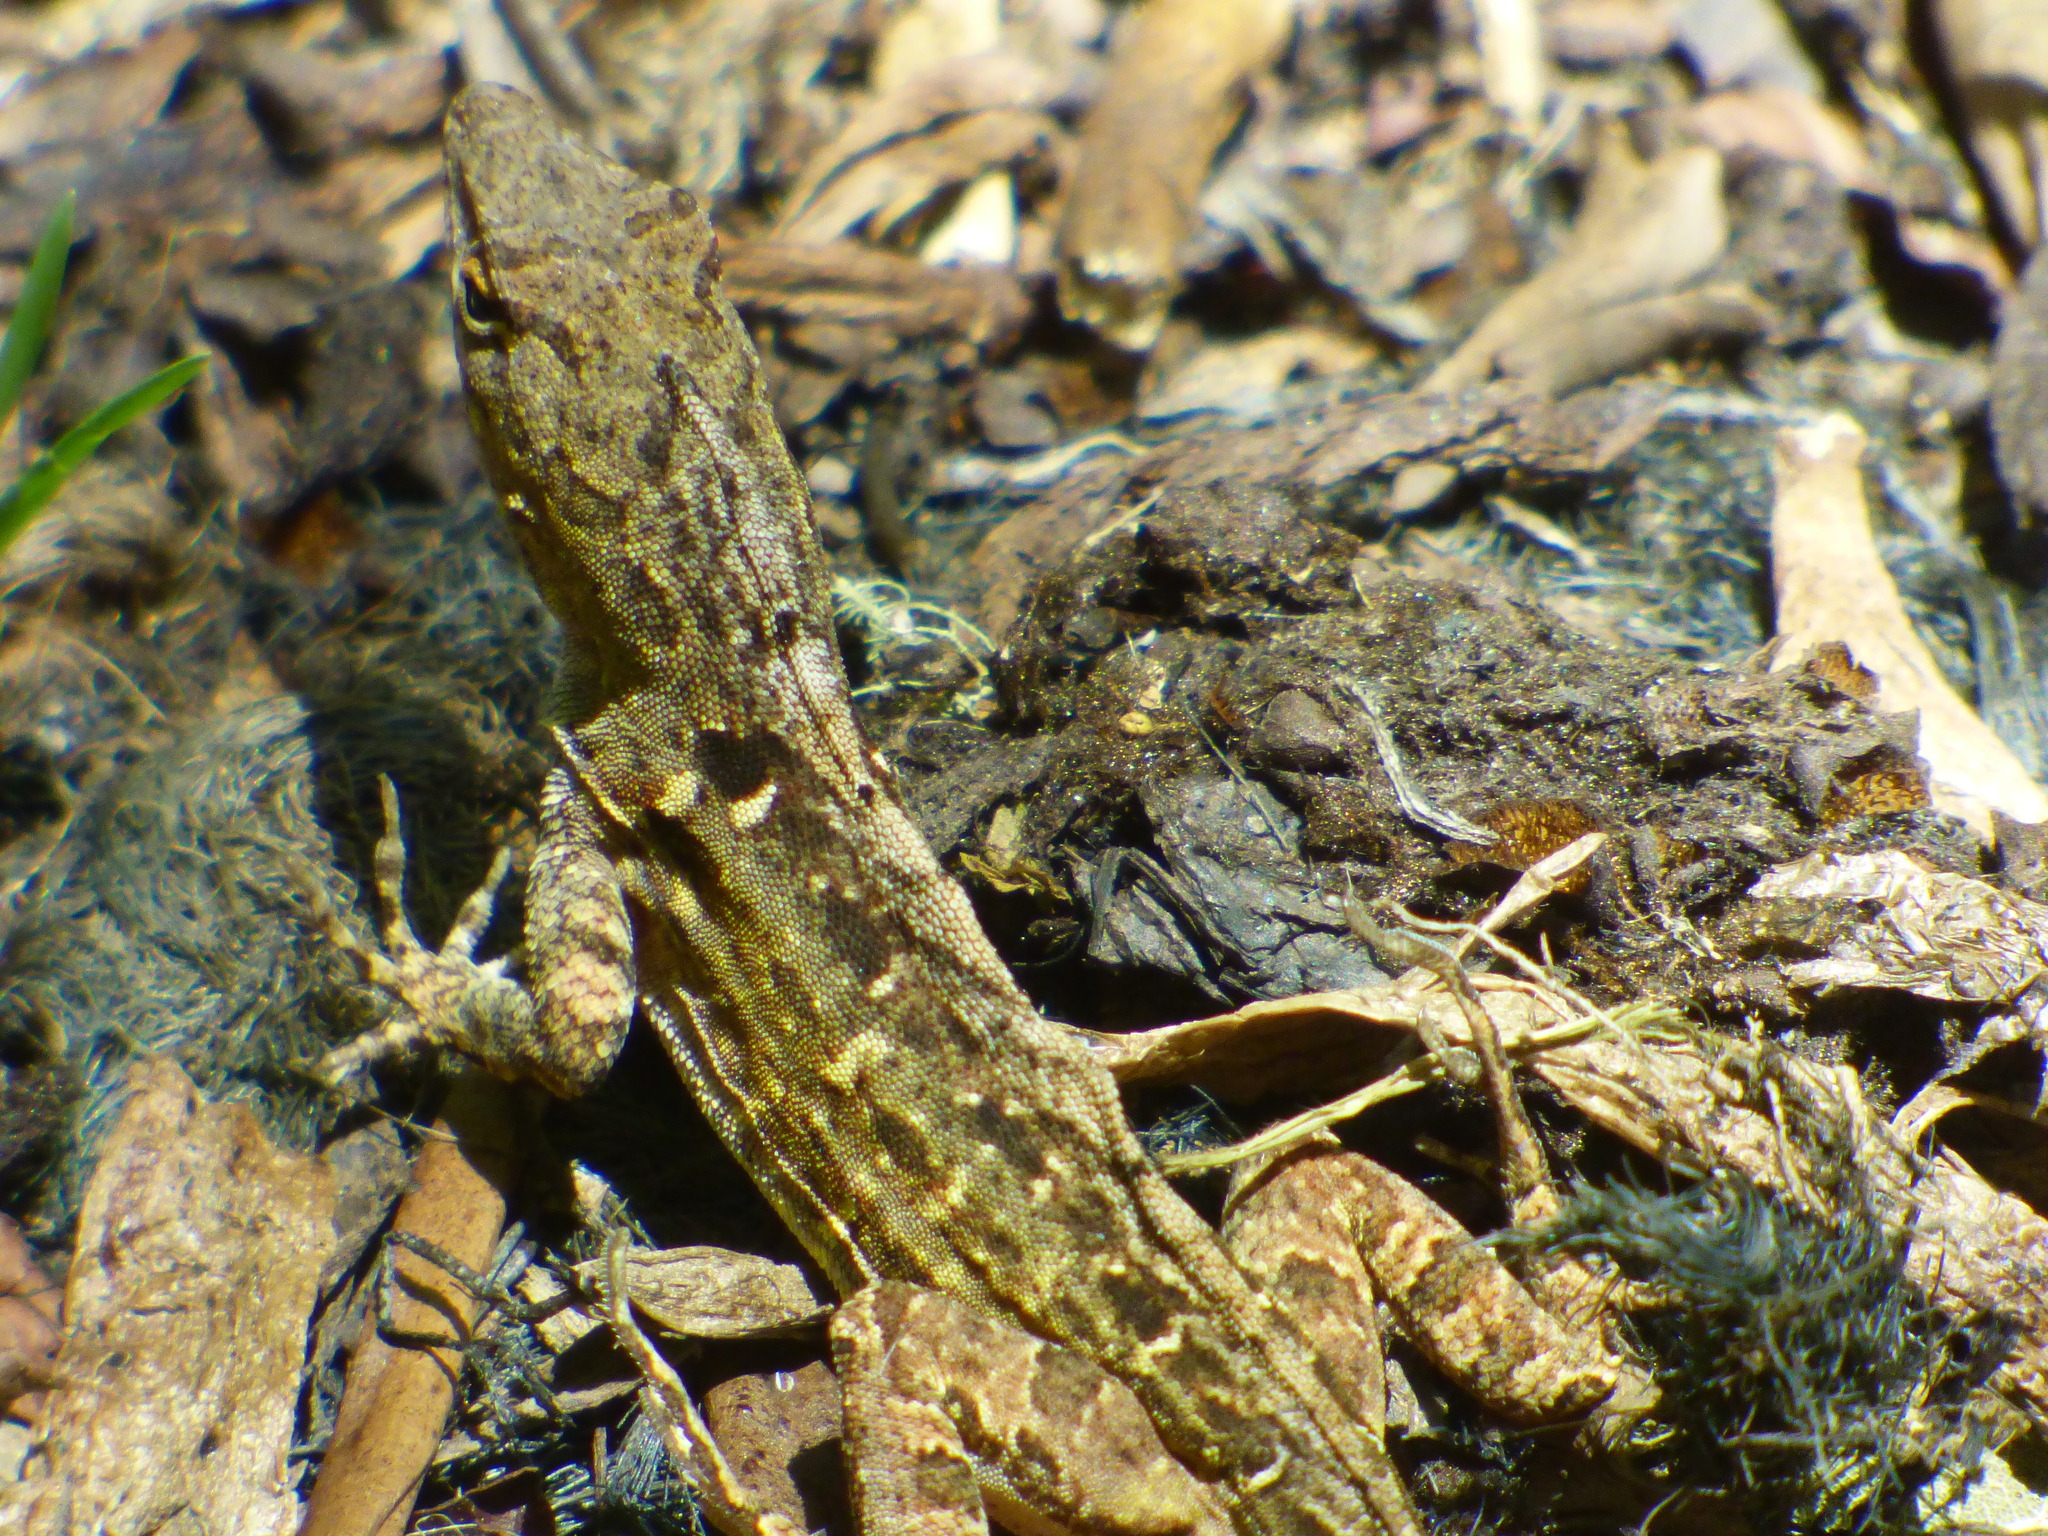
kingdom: Animalia
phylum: Chordata
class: Squamata
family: Dactyloidae
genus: Anolis
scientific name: Anolis sagrei
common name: Brown anole
